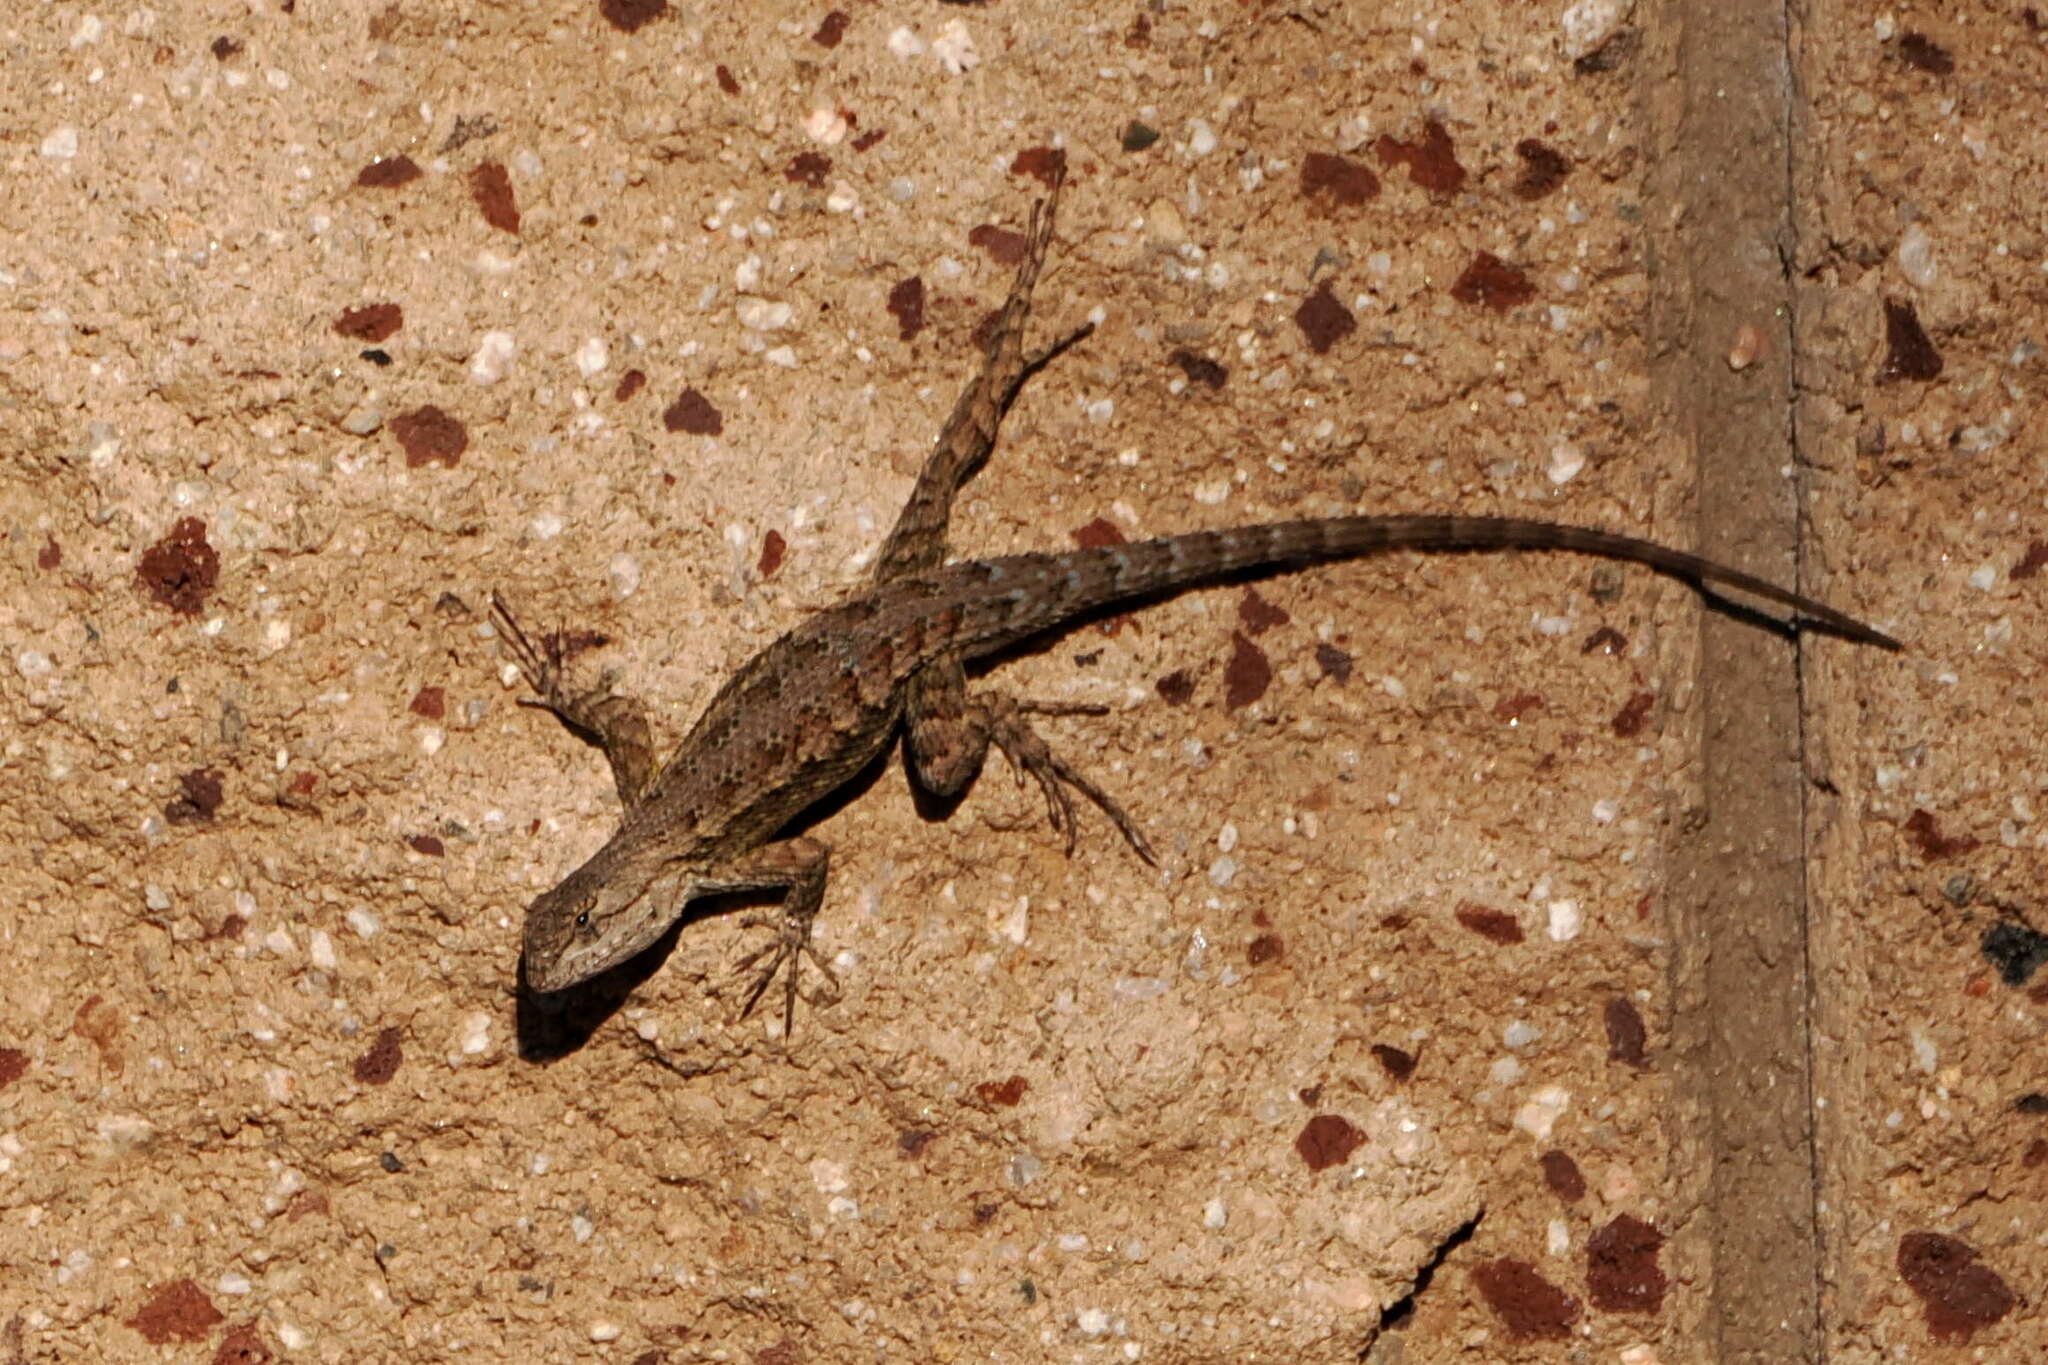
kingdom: Animalia
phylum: Chordata
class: Squamata
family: Phrynosomatidae
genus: Sceloporus
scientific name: Sceloporus occidentalis
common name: Western fence lizard
